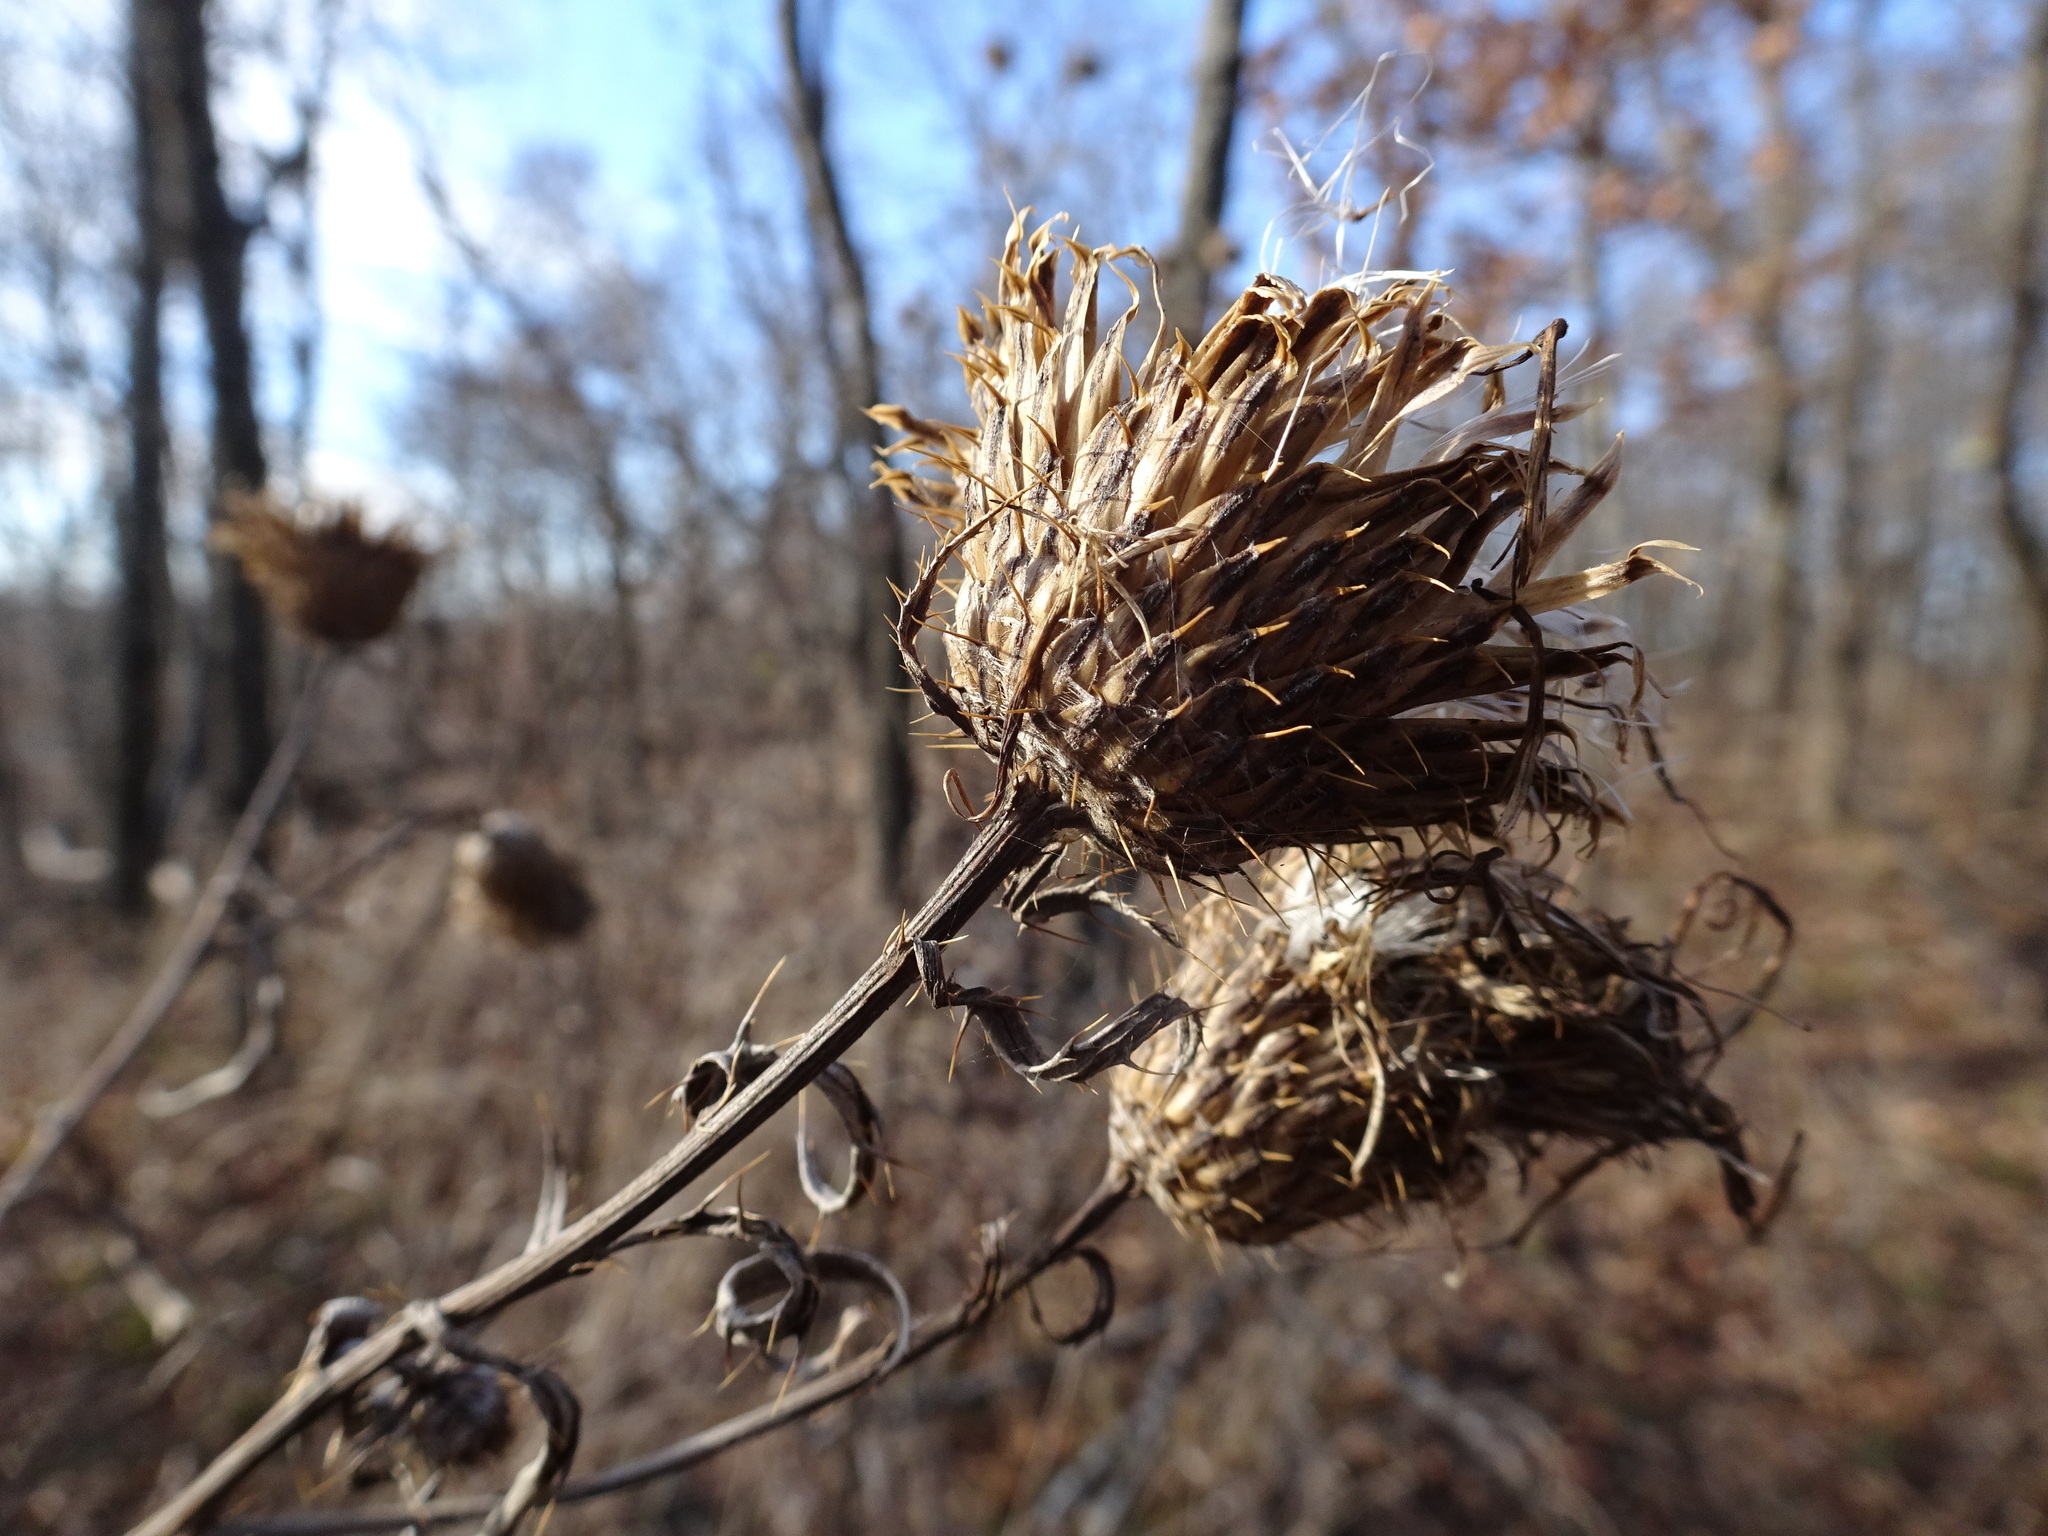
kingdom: Plantae
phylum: Tracheophyta
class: Magnoliopsida
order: Asterales
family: Asteraceae
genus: Cirsium
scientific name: Cirsium altissimum
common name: Roadside thistle
